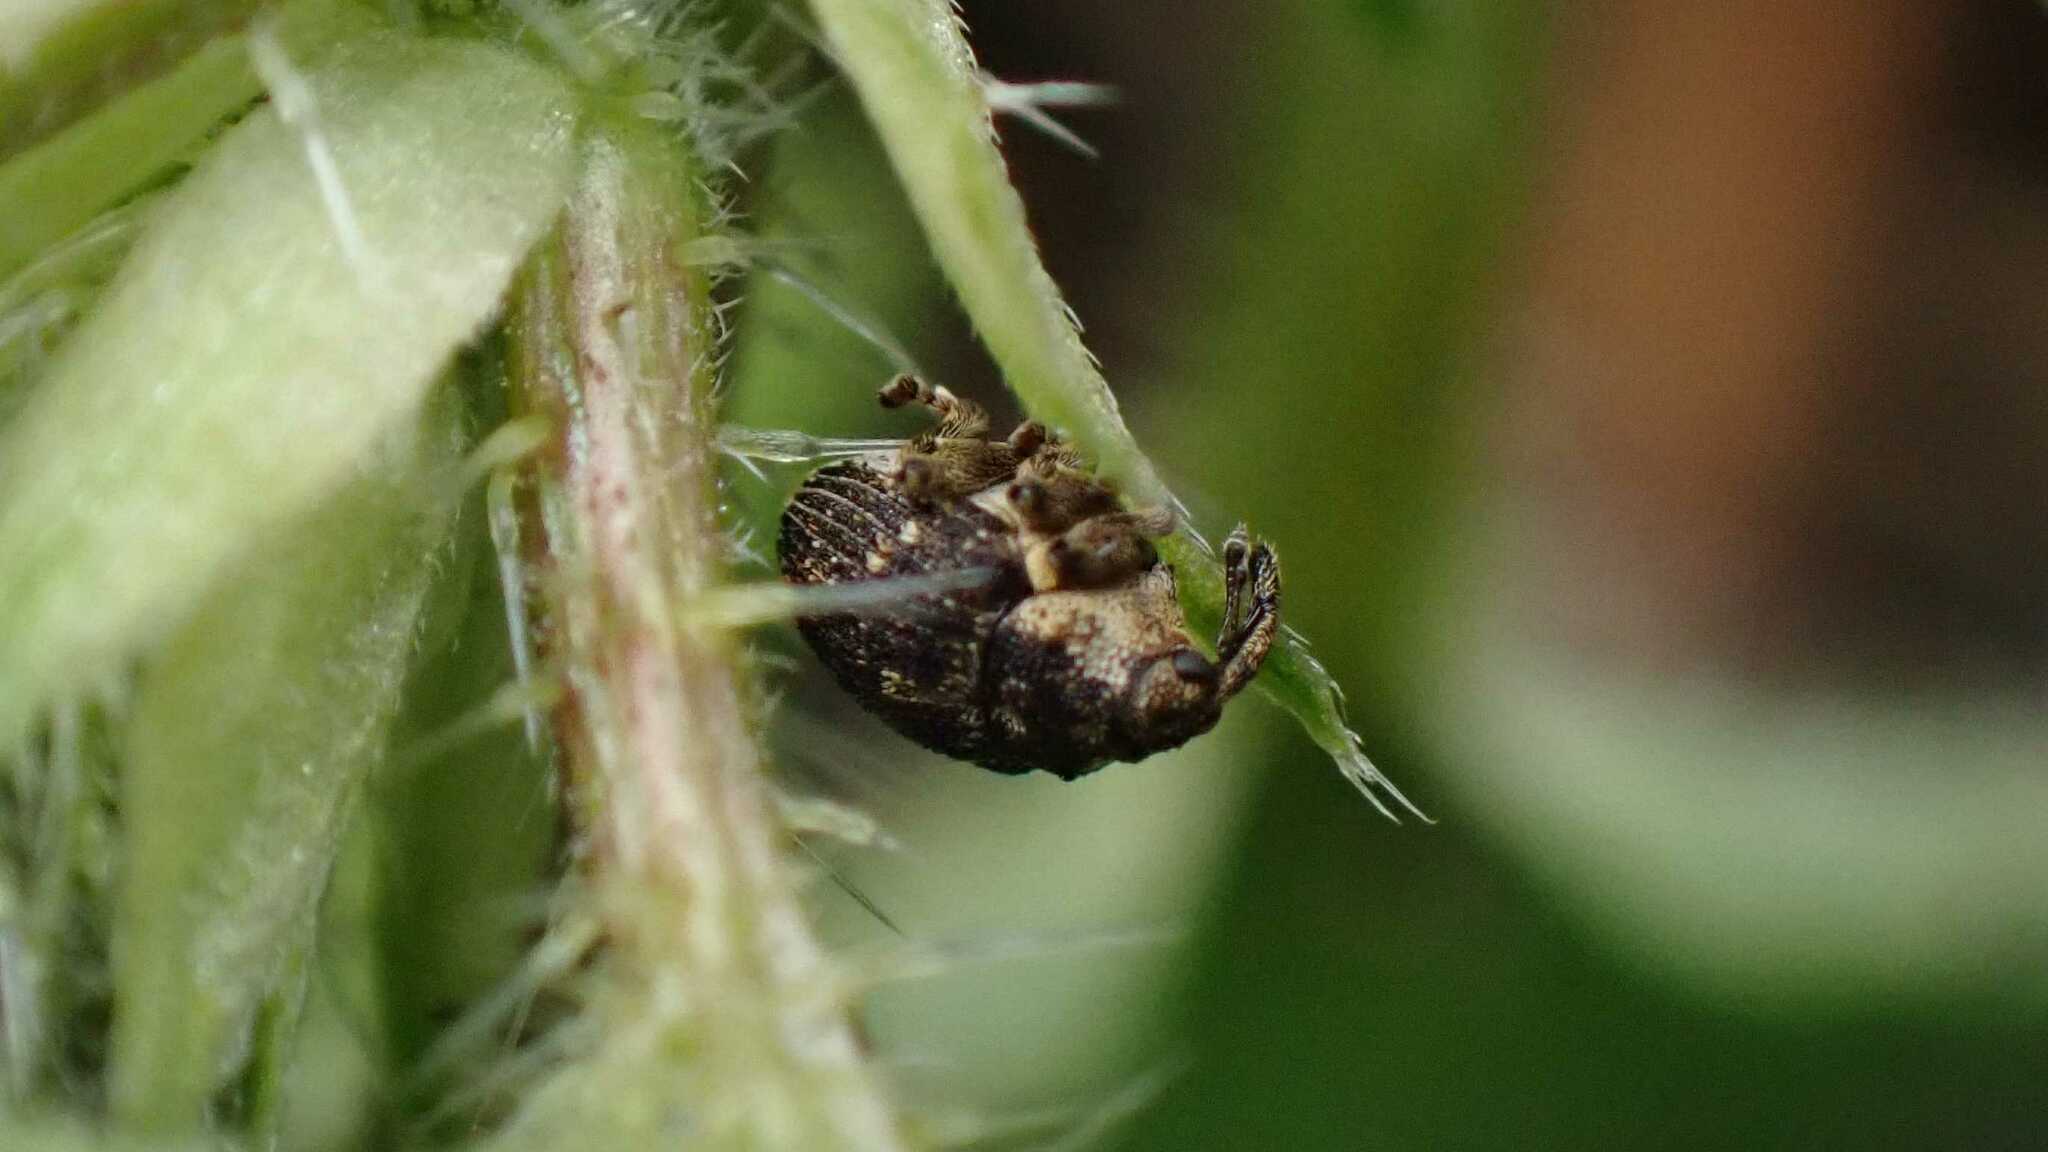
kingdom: Animalia
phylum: Arthropoda
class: Insecta
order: Coleoptera
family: Curculionidae
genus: Nedyus
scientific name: Nedyus quadrimaculatus
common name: Small nettle weevil
